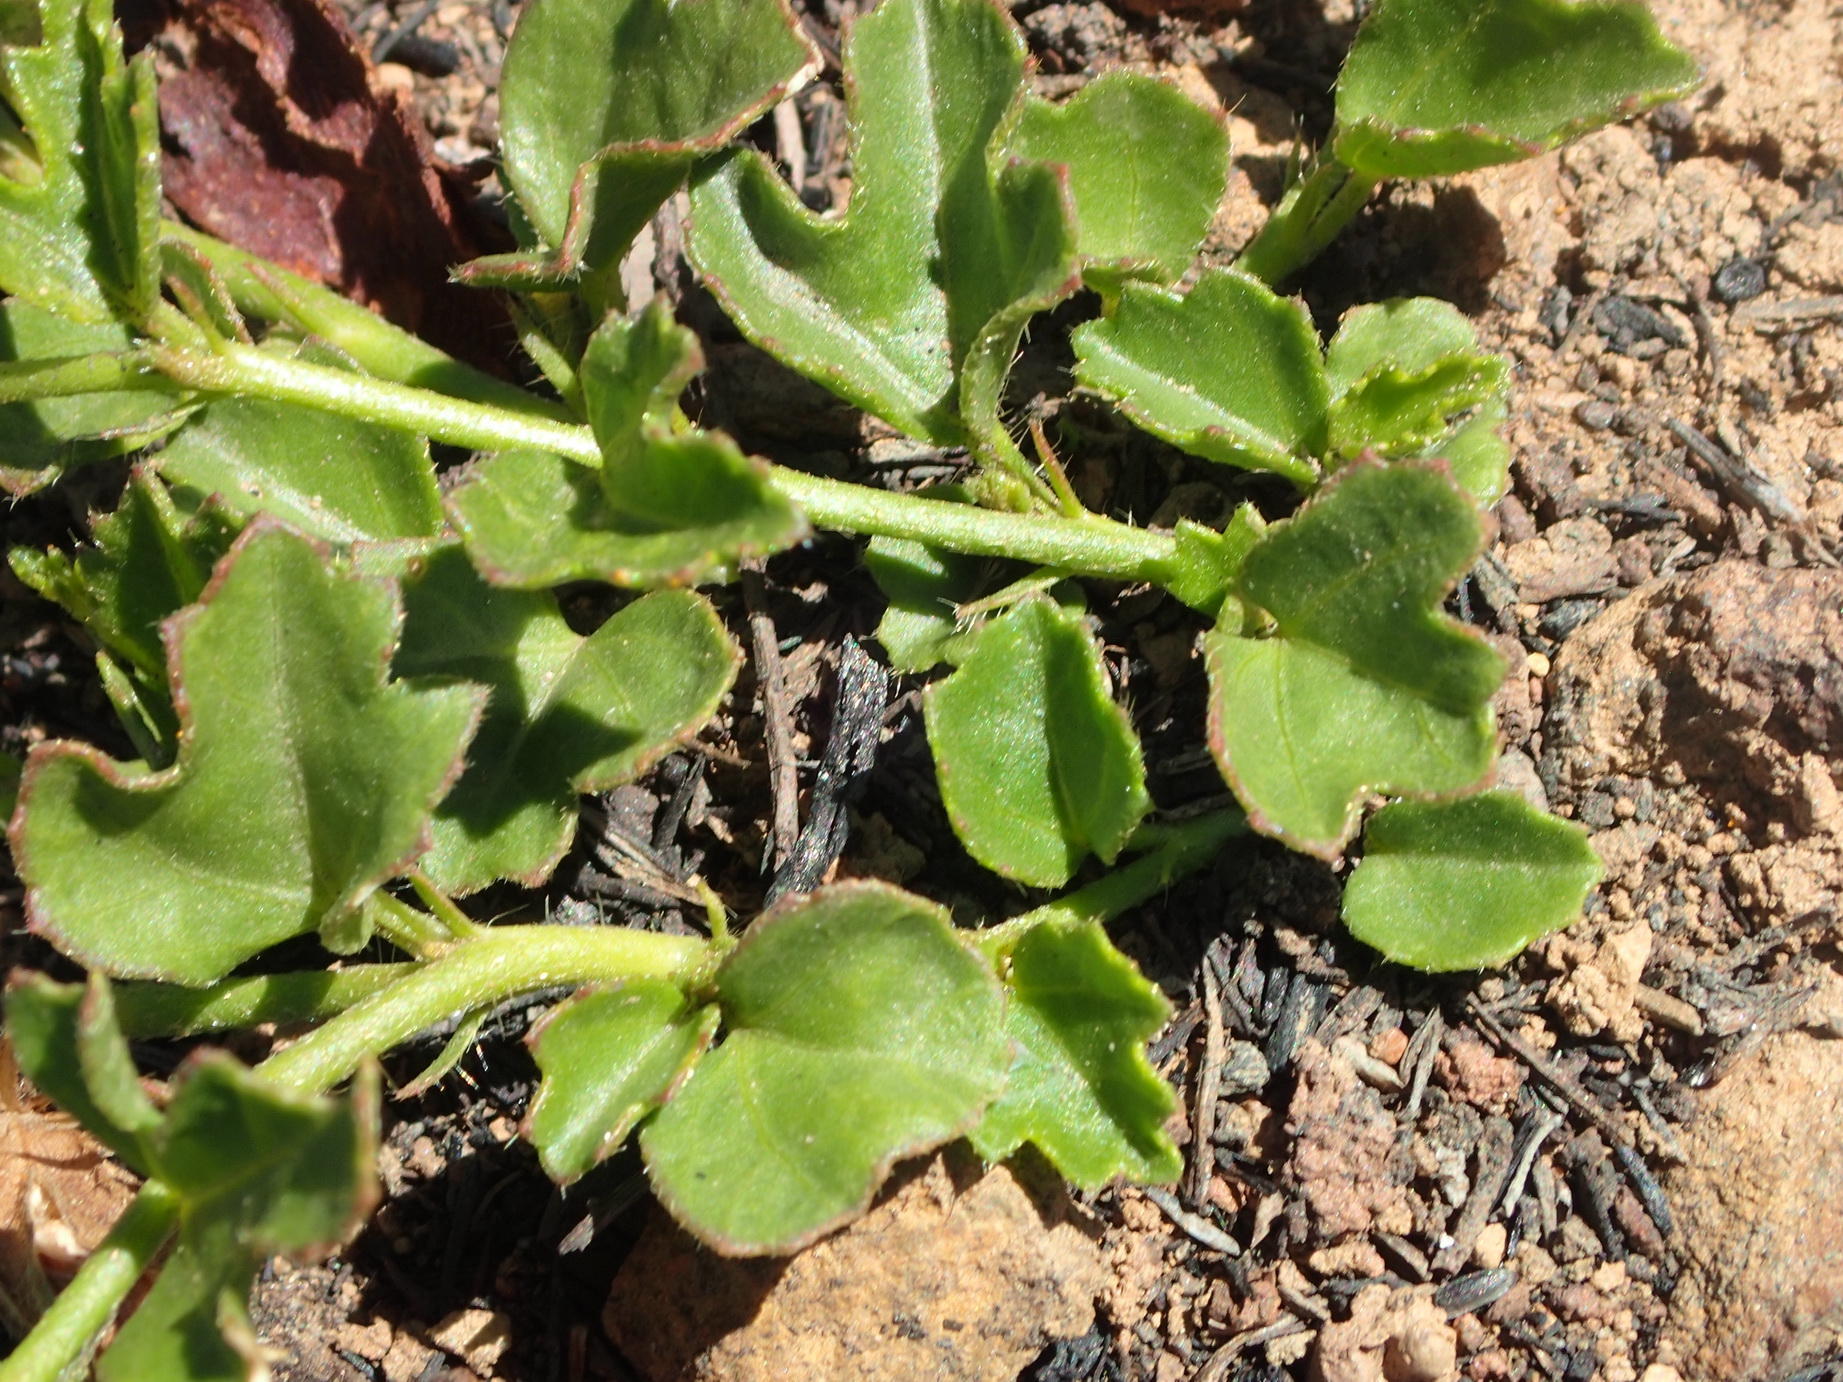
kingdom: Plantae
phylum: Tracheophyta
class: Magnoliopsida
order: Malvales
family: Malvaceae
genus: Hibiscus
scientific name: Hibiscus pusillus
